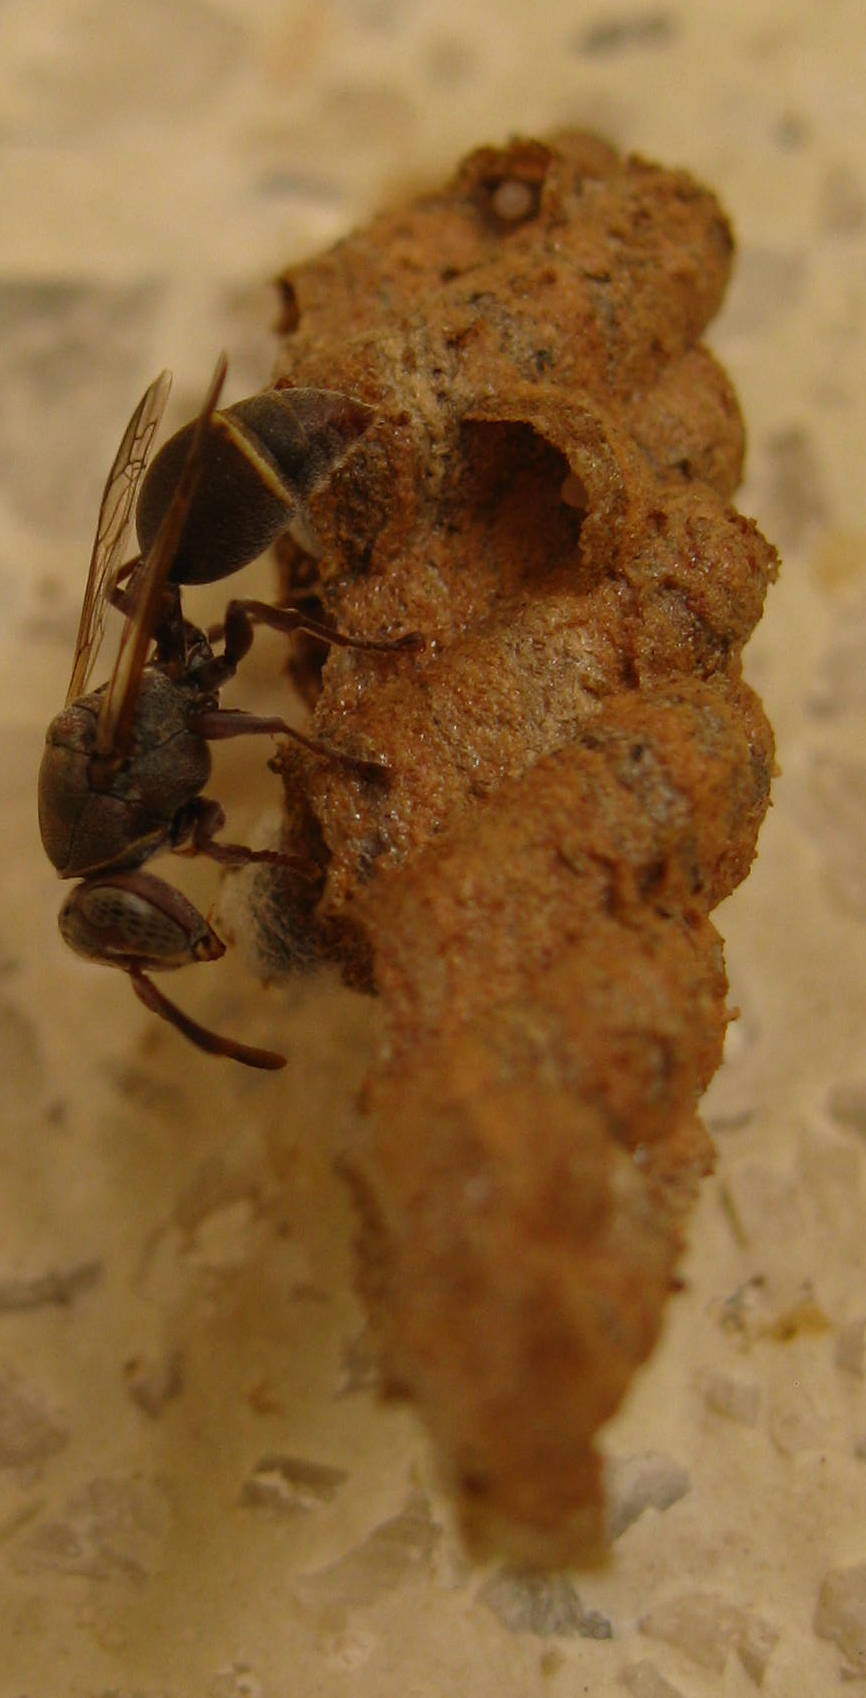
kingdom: Animalia
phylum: Arthropoda
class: Insecta
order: Hymenoptera
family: Vespidae
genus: Ropalidia
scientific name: Ropalidia capensis
